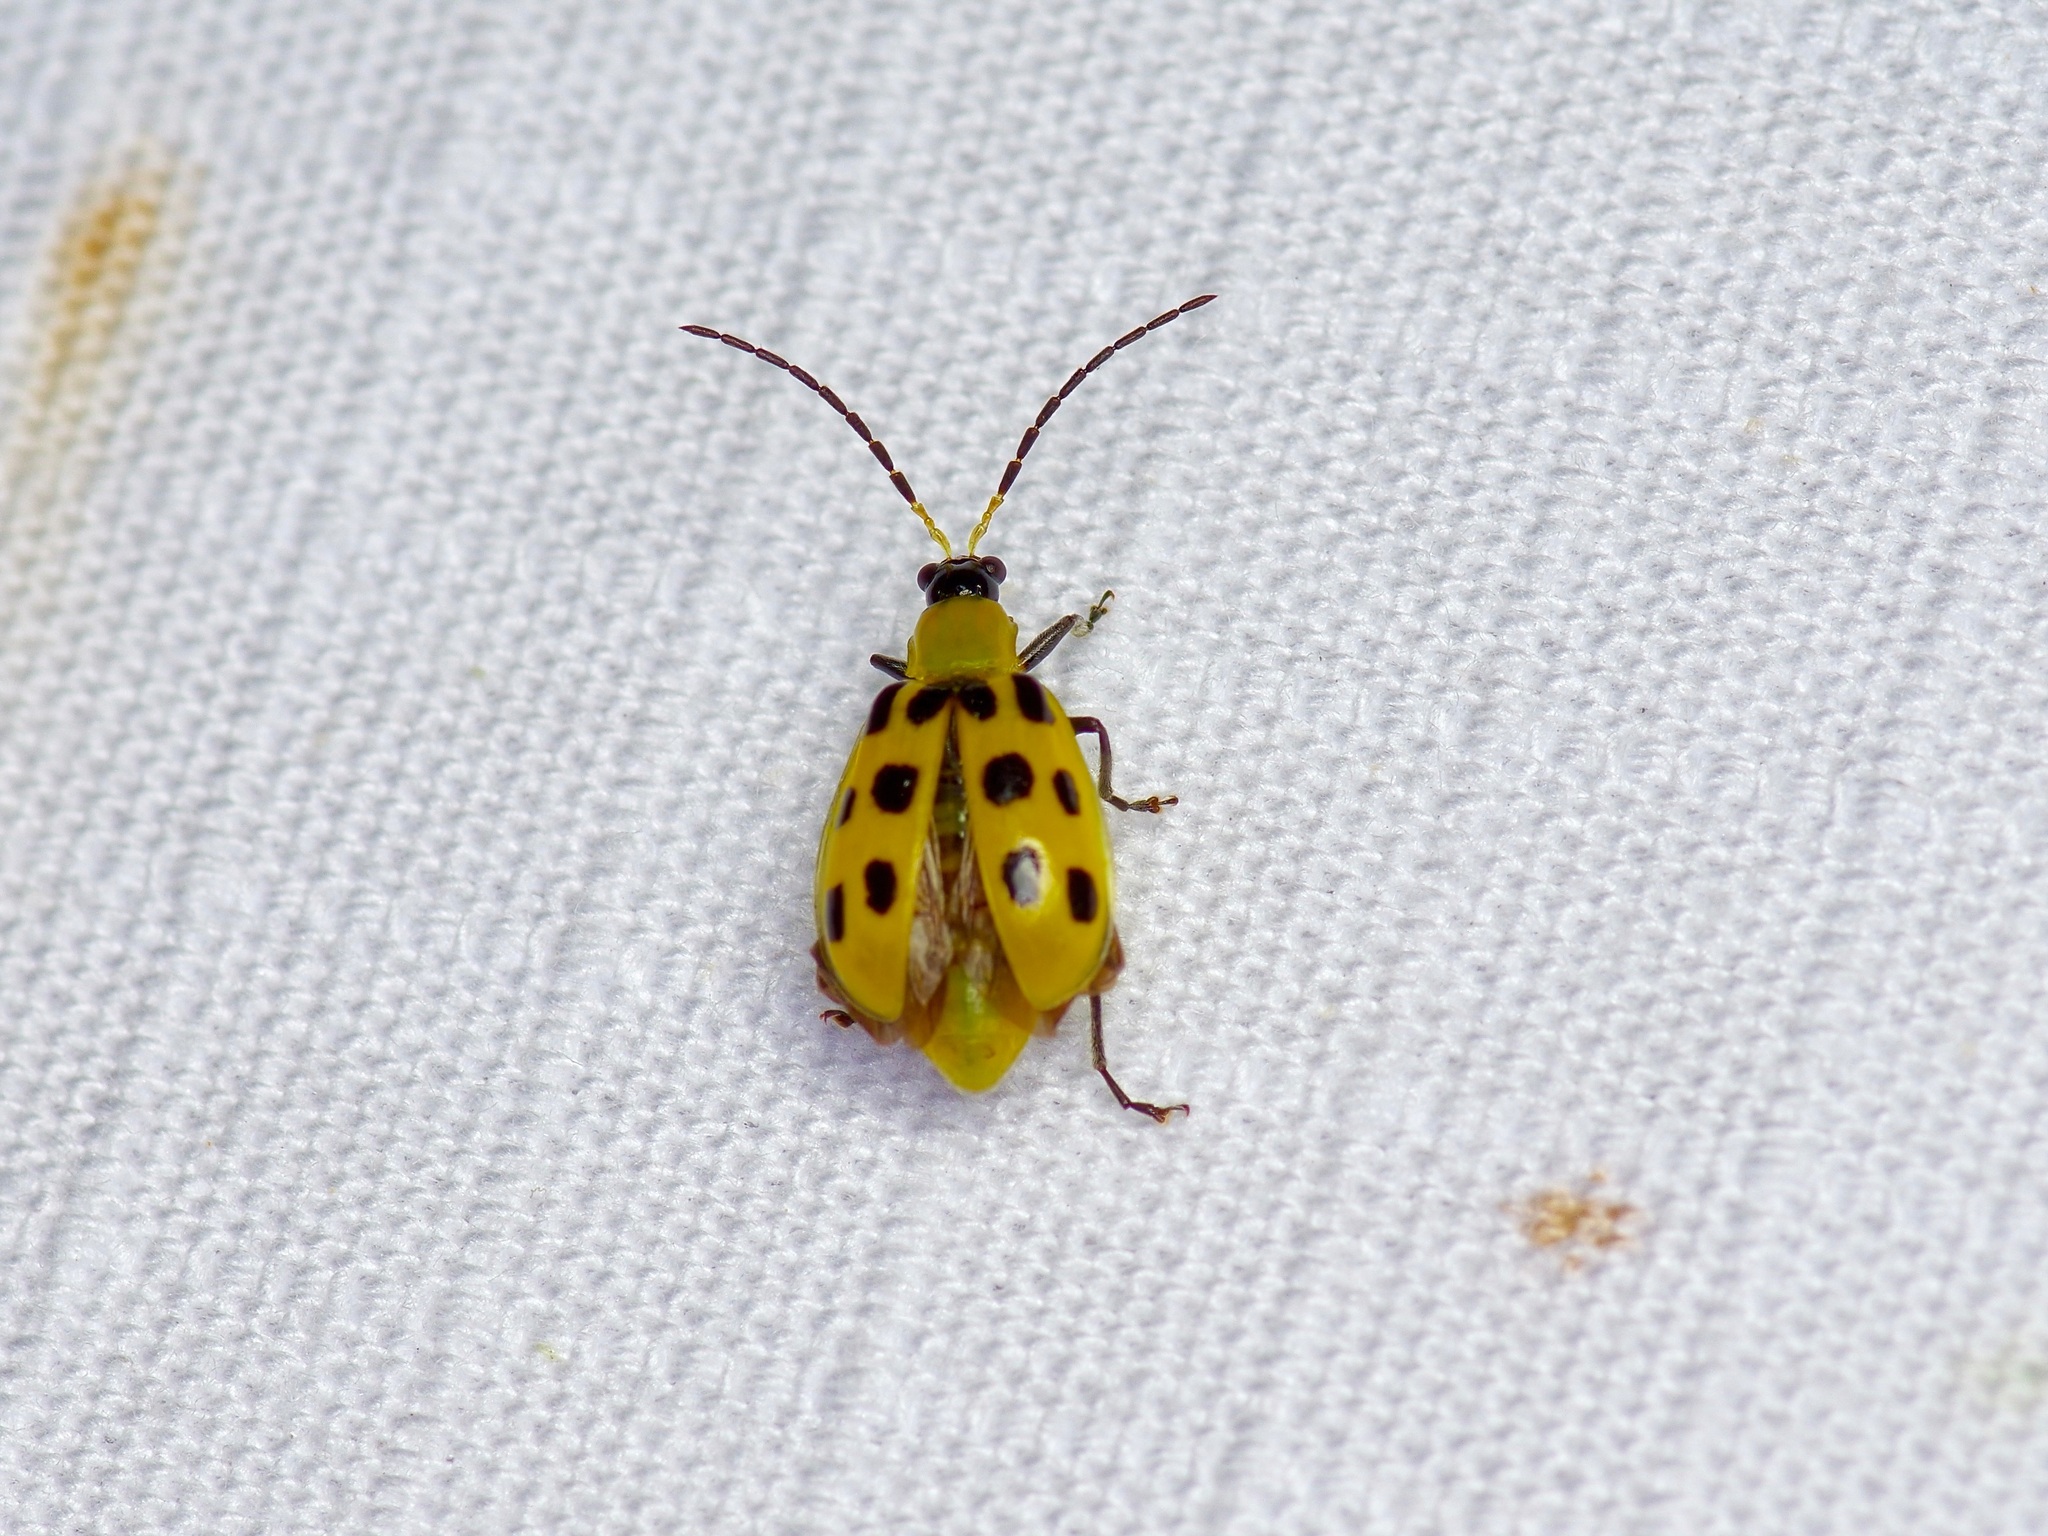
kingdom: Animalia
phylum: Arthropoda
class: Insecta
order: Coleoptera
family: Chrysomelidae
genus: Diabrotica
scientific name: Diabrotica undecimpunctata
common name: Spotted cucumber beetle
